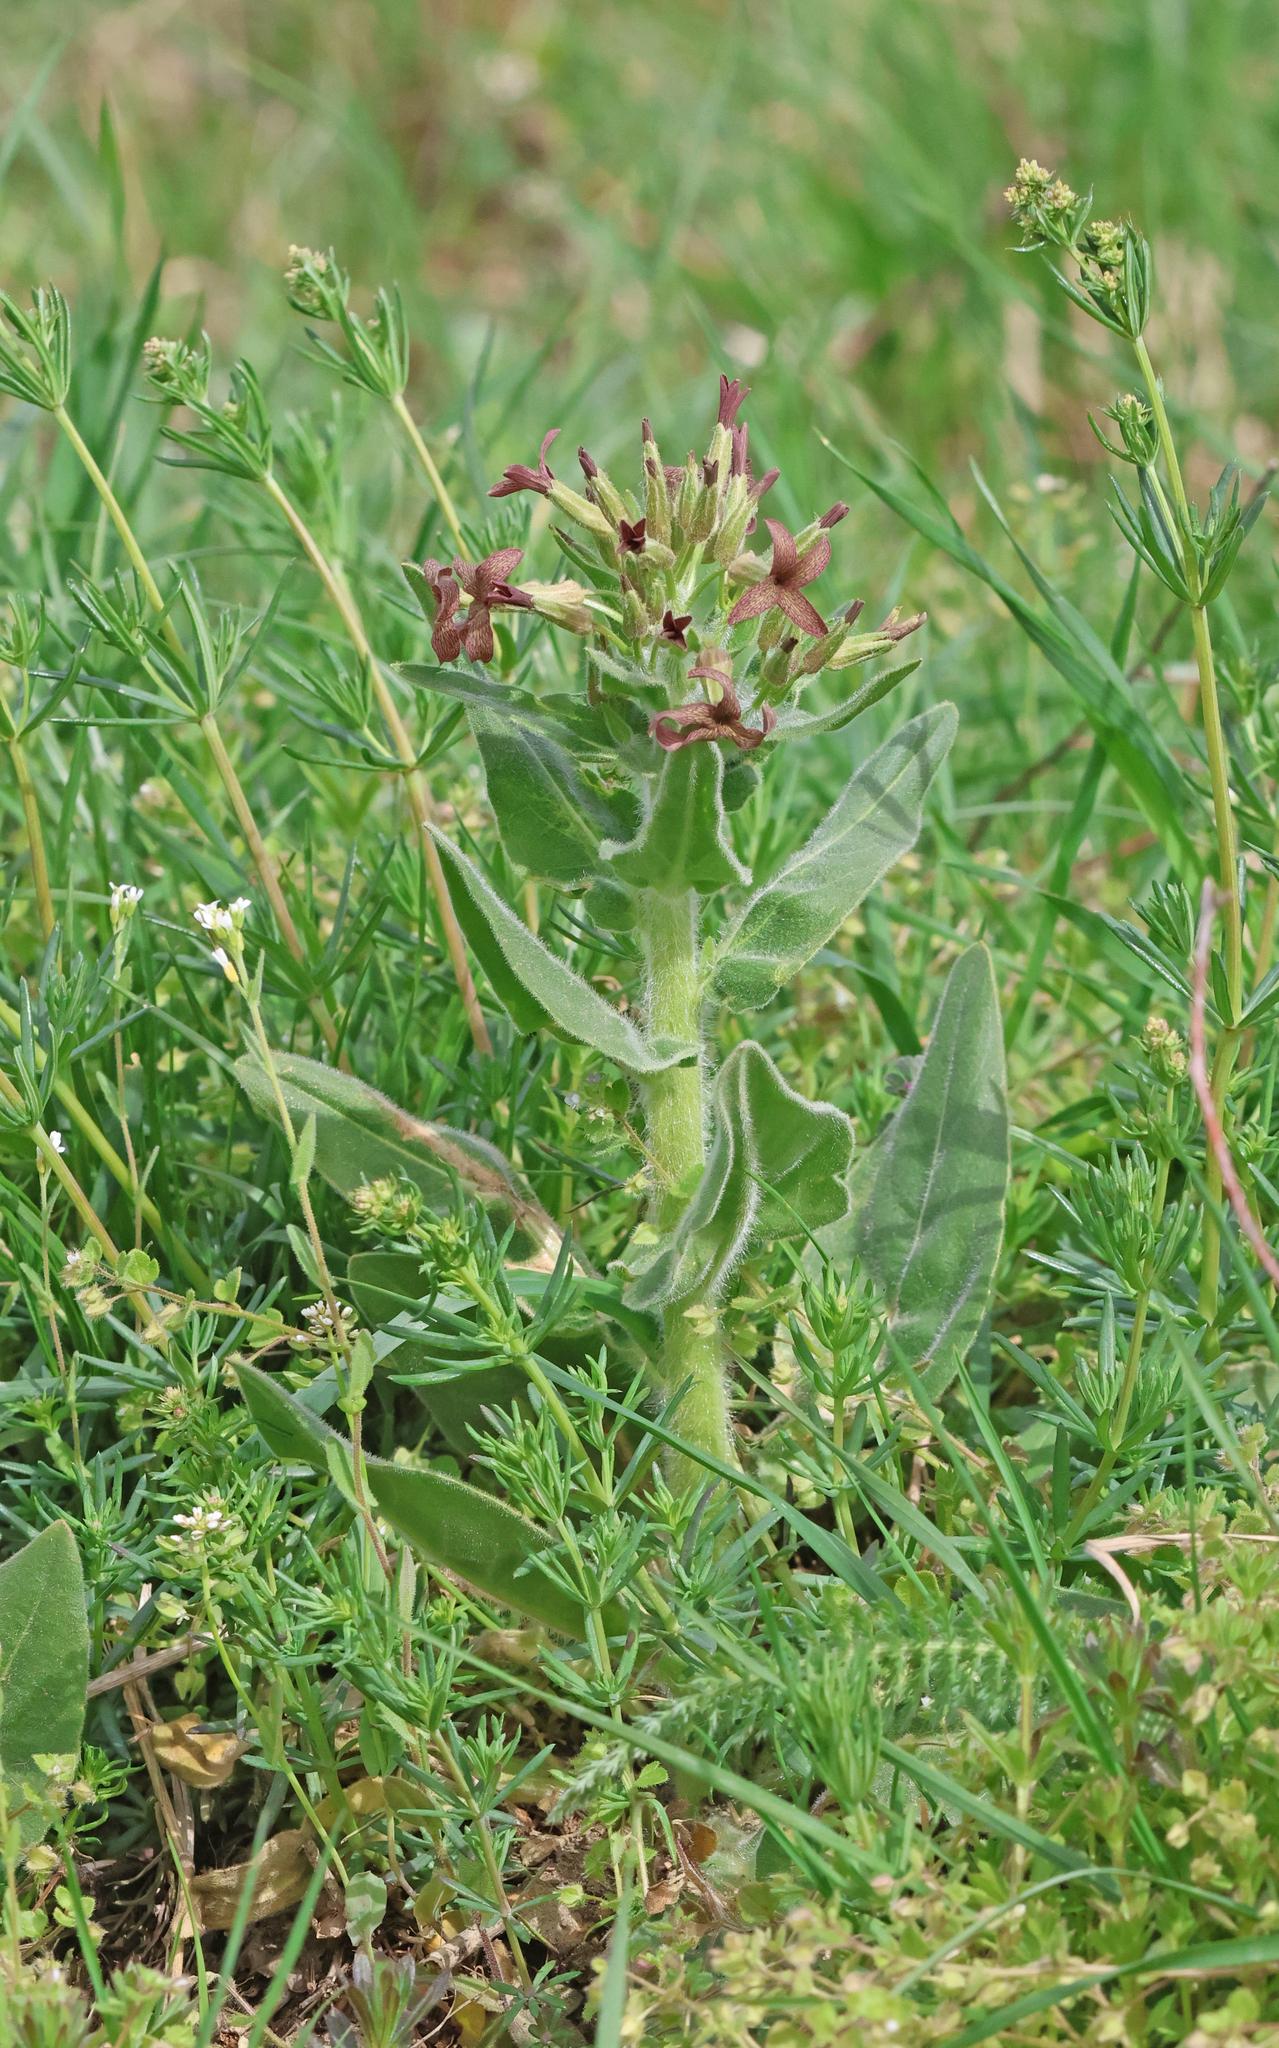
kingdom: Plantae
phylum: Tracheophyta
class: Magnoliopsida
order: Brassicales
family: Brassicaceae
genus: Hesperis
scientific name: Hesperis tristis
